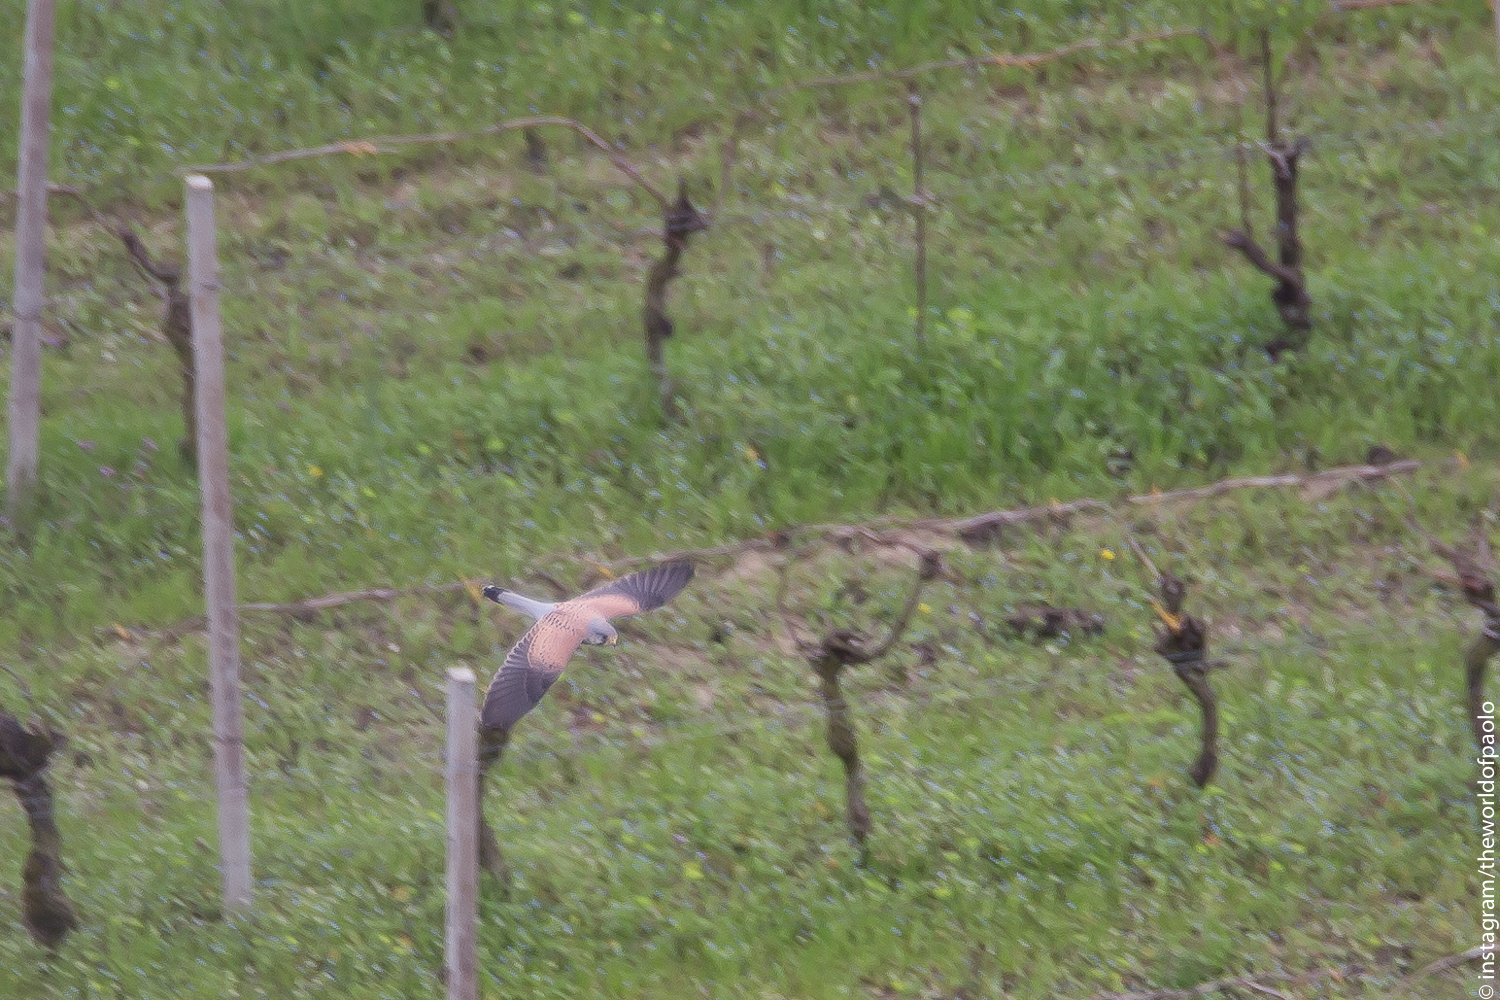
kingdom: Animalia
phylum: Chordata
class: Aves
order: Falconiformes
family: Falconidae
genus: Falco
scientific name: Falco tinnunculus
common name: Common kestrel
